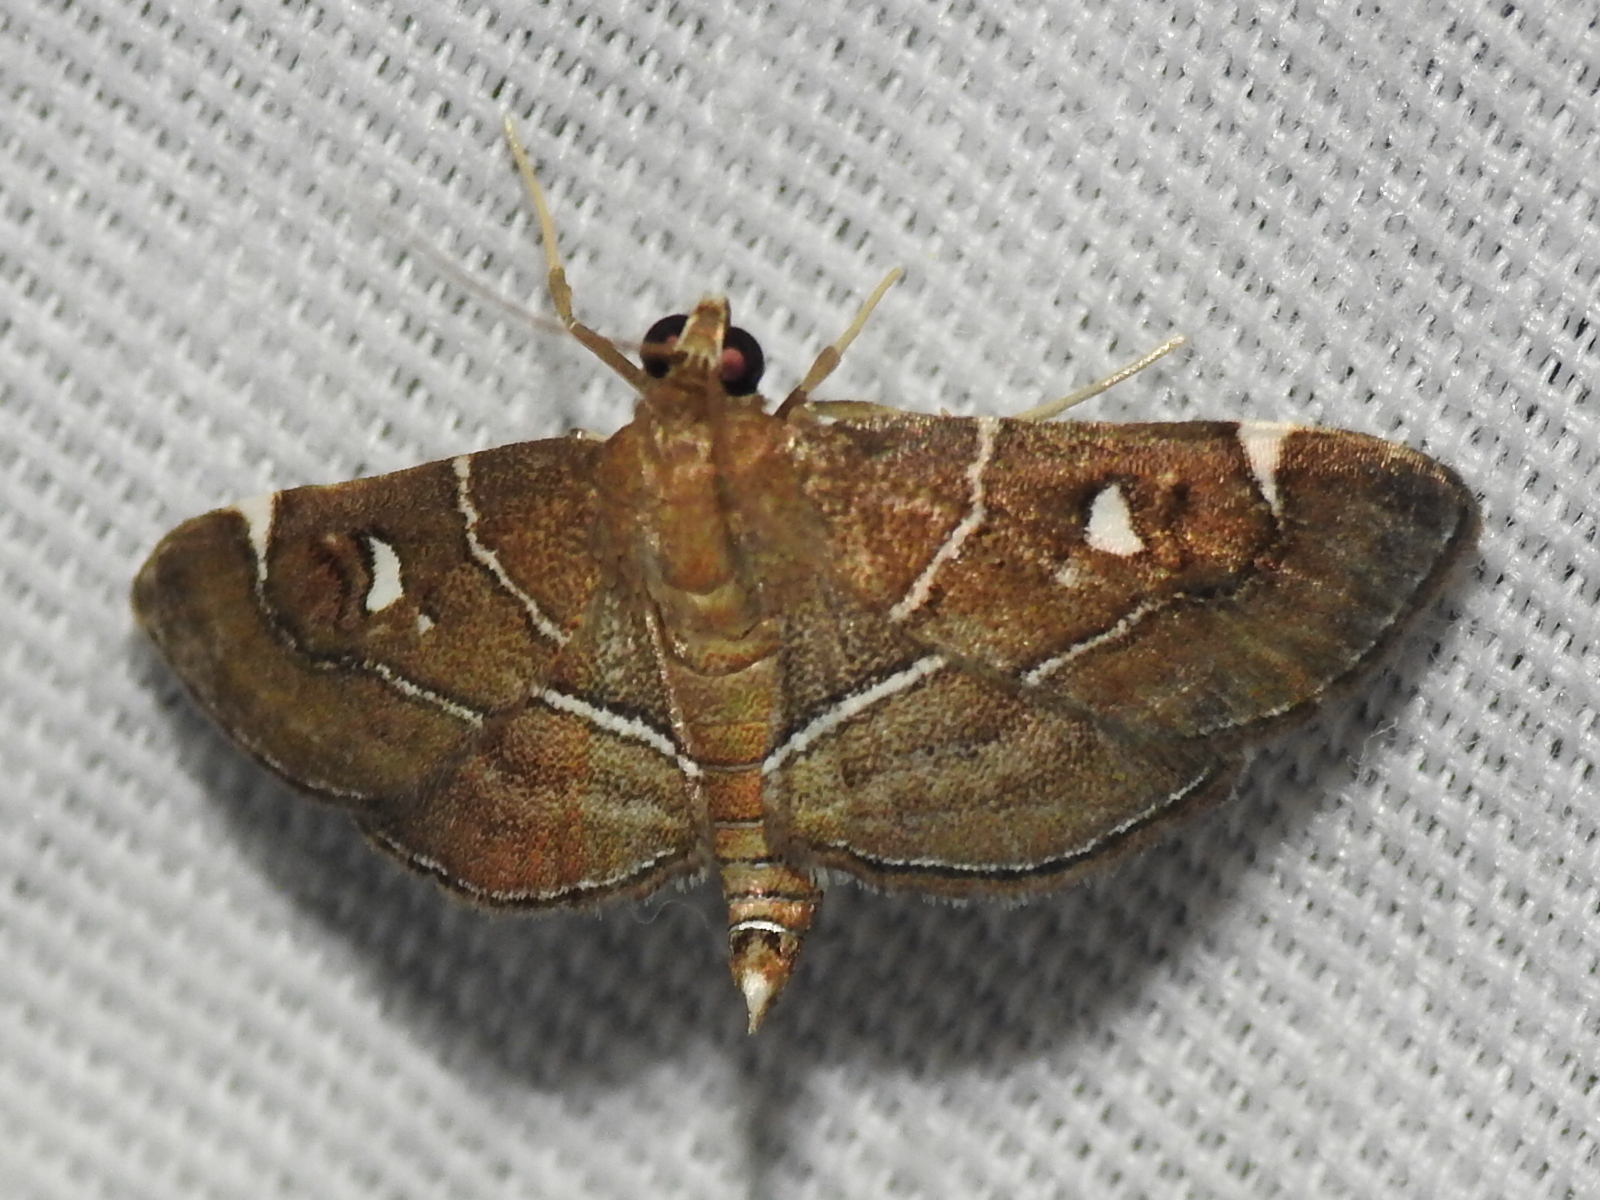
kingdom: Animalia
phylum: Arthropoda
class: Insecta
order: Lepidoptera
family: Crambidae
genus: Lamprosema
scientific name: Lamprosema victoriae
